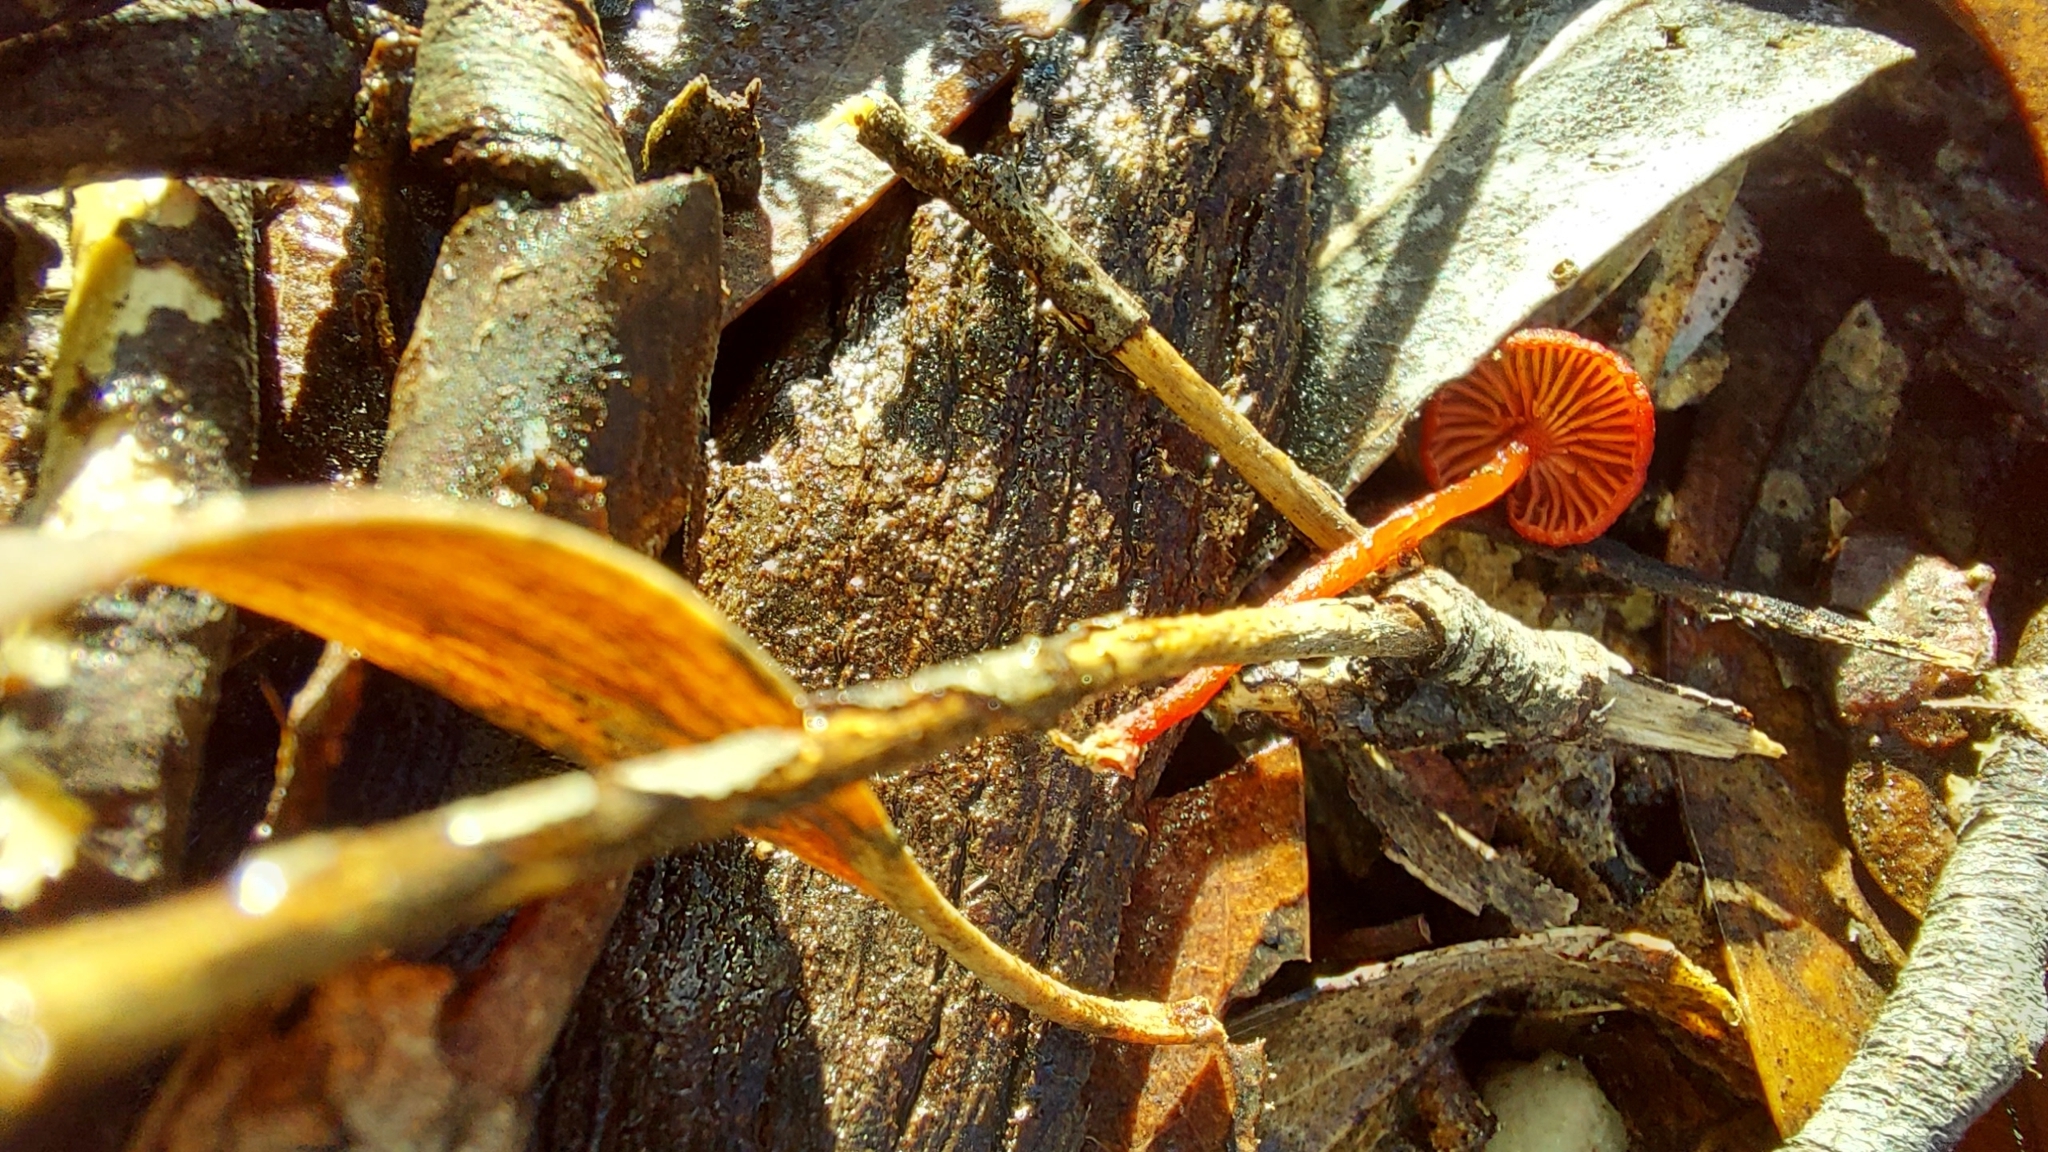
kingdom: Fungi
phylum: Basidiomycota
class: Agaricomycetes
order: Agaricales
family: Mycenaceae
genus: Cruentomycena
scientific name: Cruentomycena viscidocruenta
